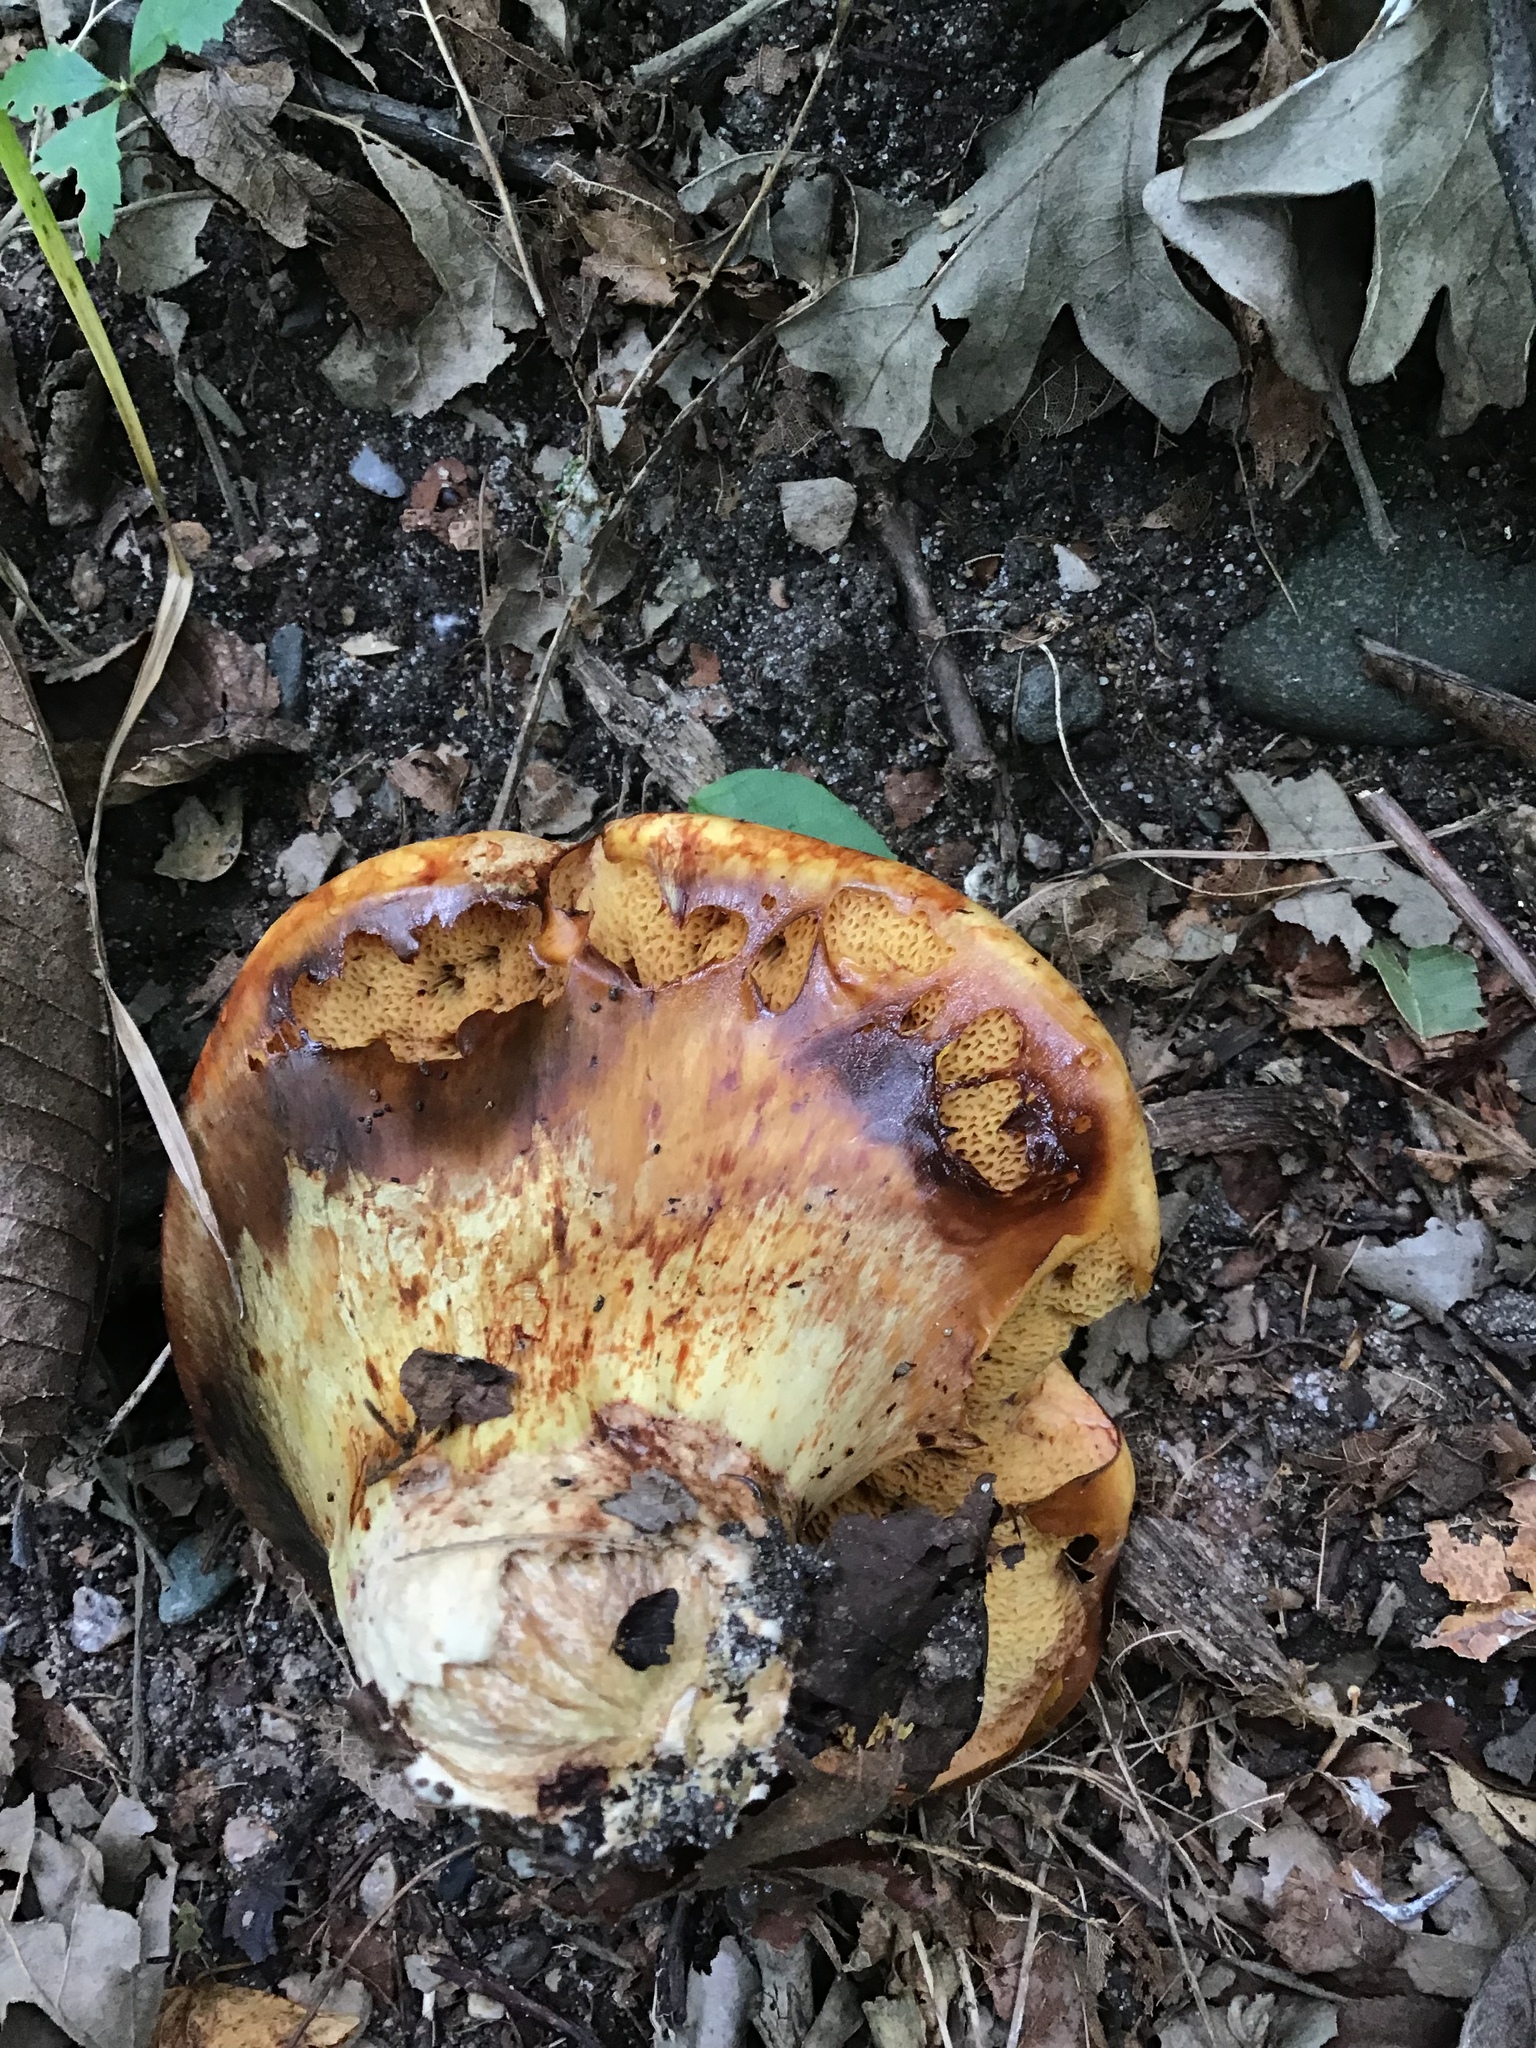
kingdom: Fungi
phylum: Basidiomycota
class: Agaricomycetes
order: Boletales
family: Suillaceae
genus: Suillus
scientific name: Suillus americanus
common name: Chicken fat mushroom
